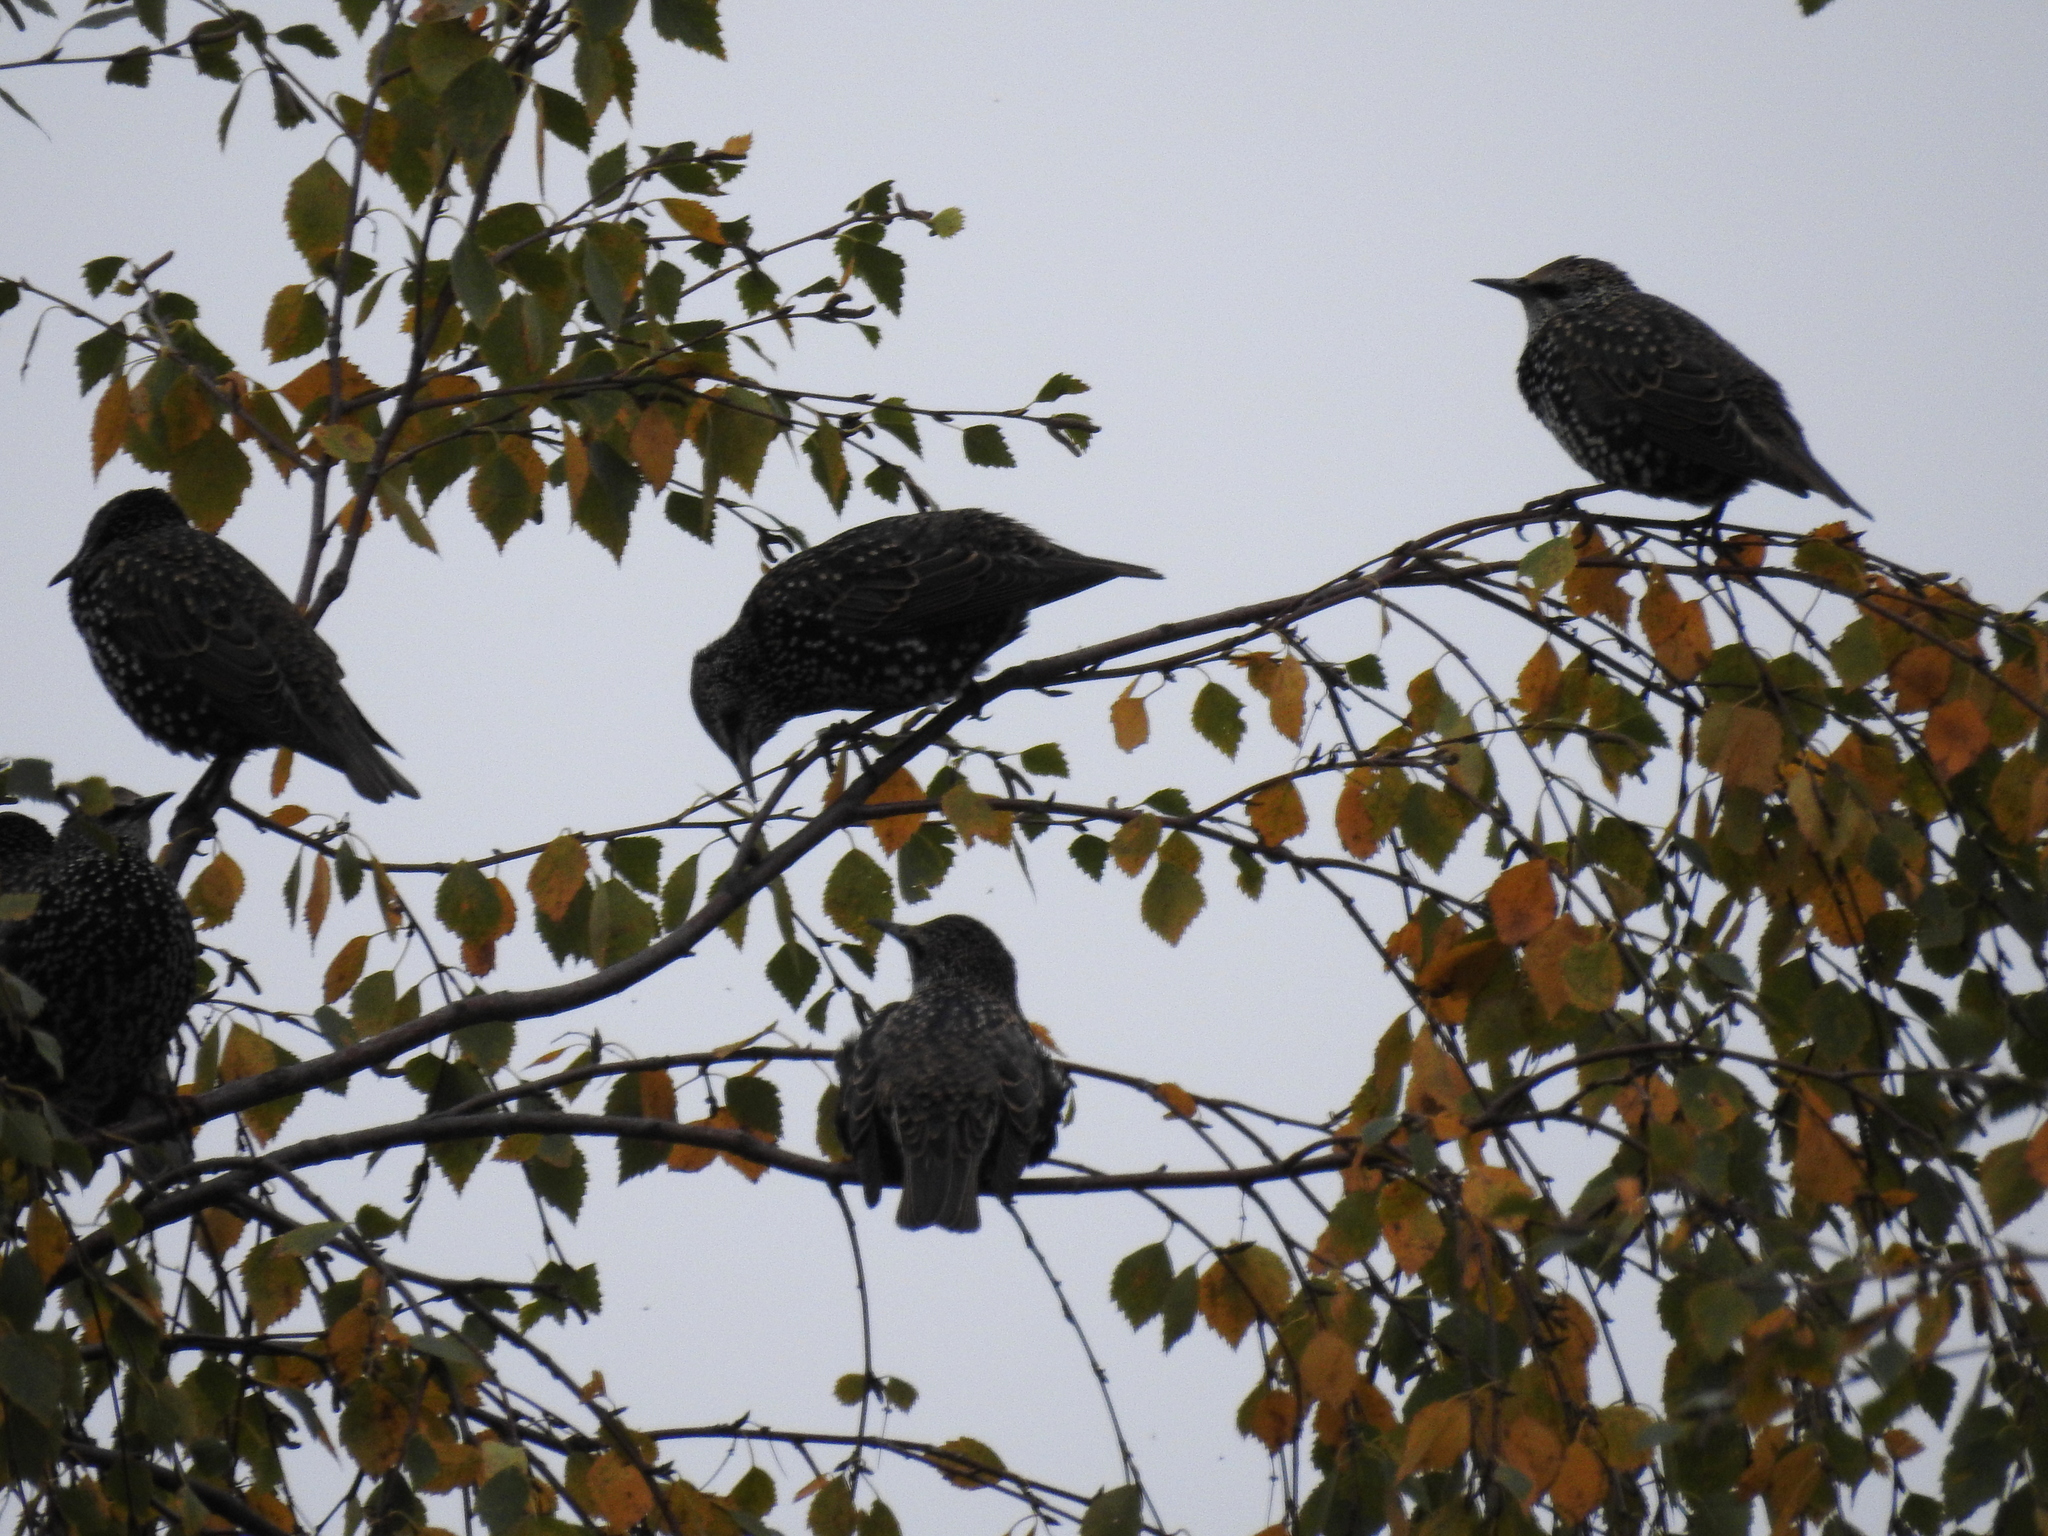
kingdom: Animalia
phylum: Chordata
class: Aves
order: Passeriformes
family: Sturnidae
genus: Sturnus
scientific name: Sturnus vulgaris
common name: Common starling
